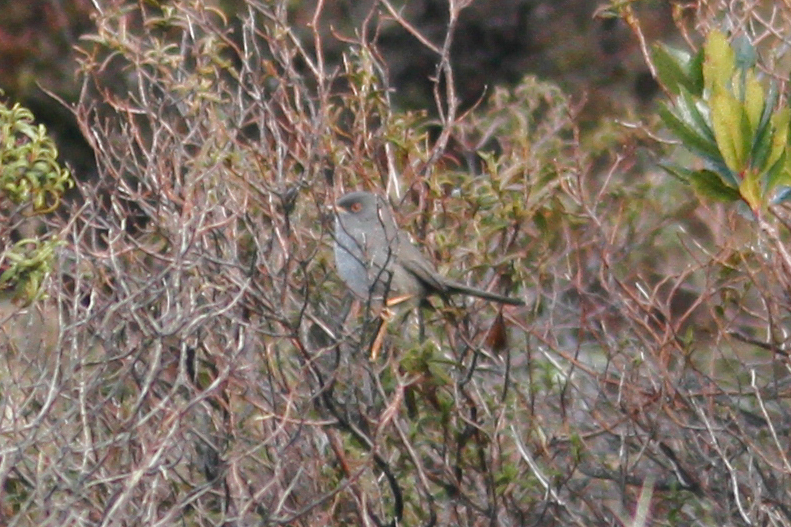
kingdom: Animalia
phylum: Chordata
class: Aves
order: Passeriformes
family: Sylviidae
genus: Sylvia
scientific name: Sylvia sarda
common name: Marmora's warbler
